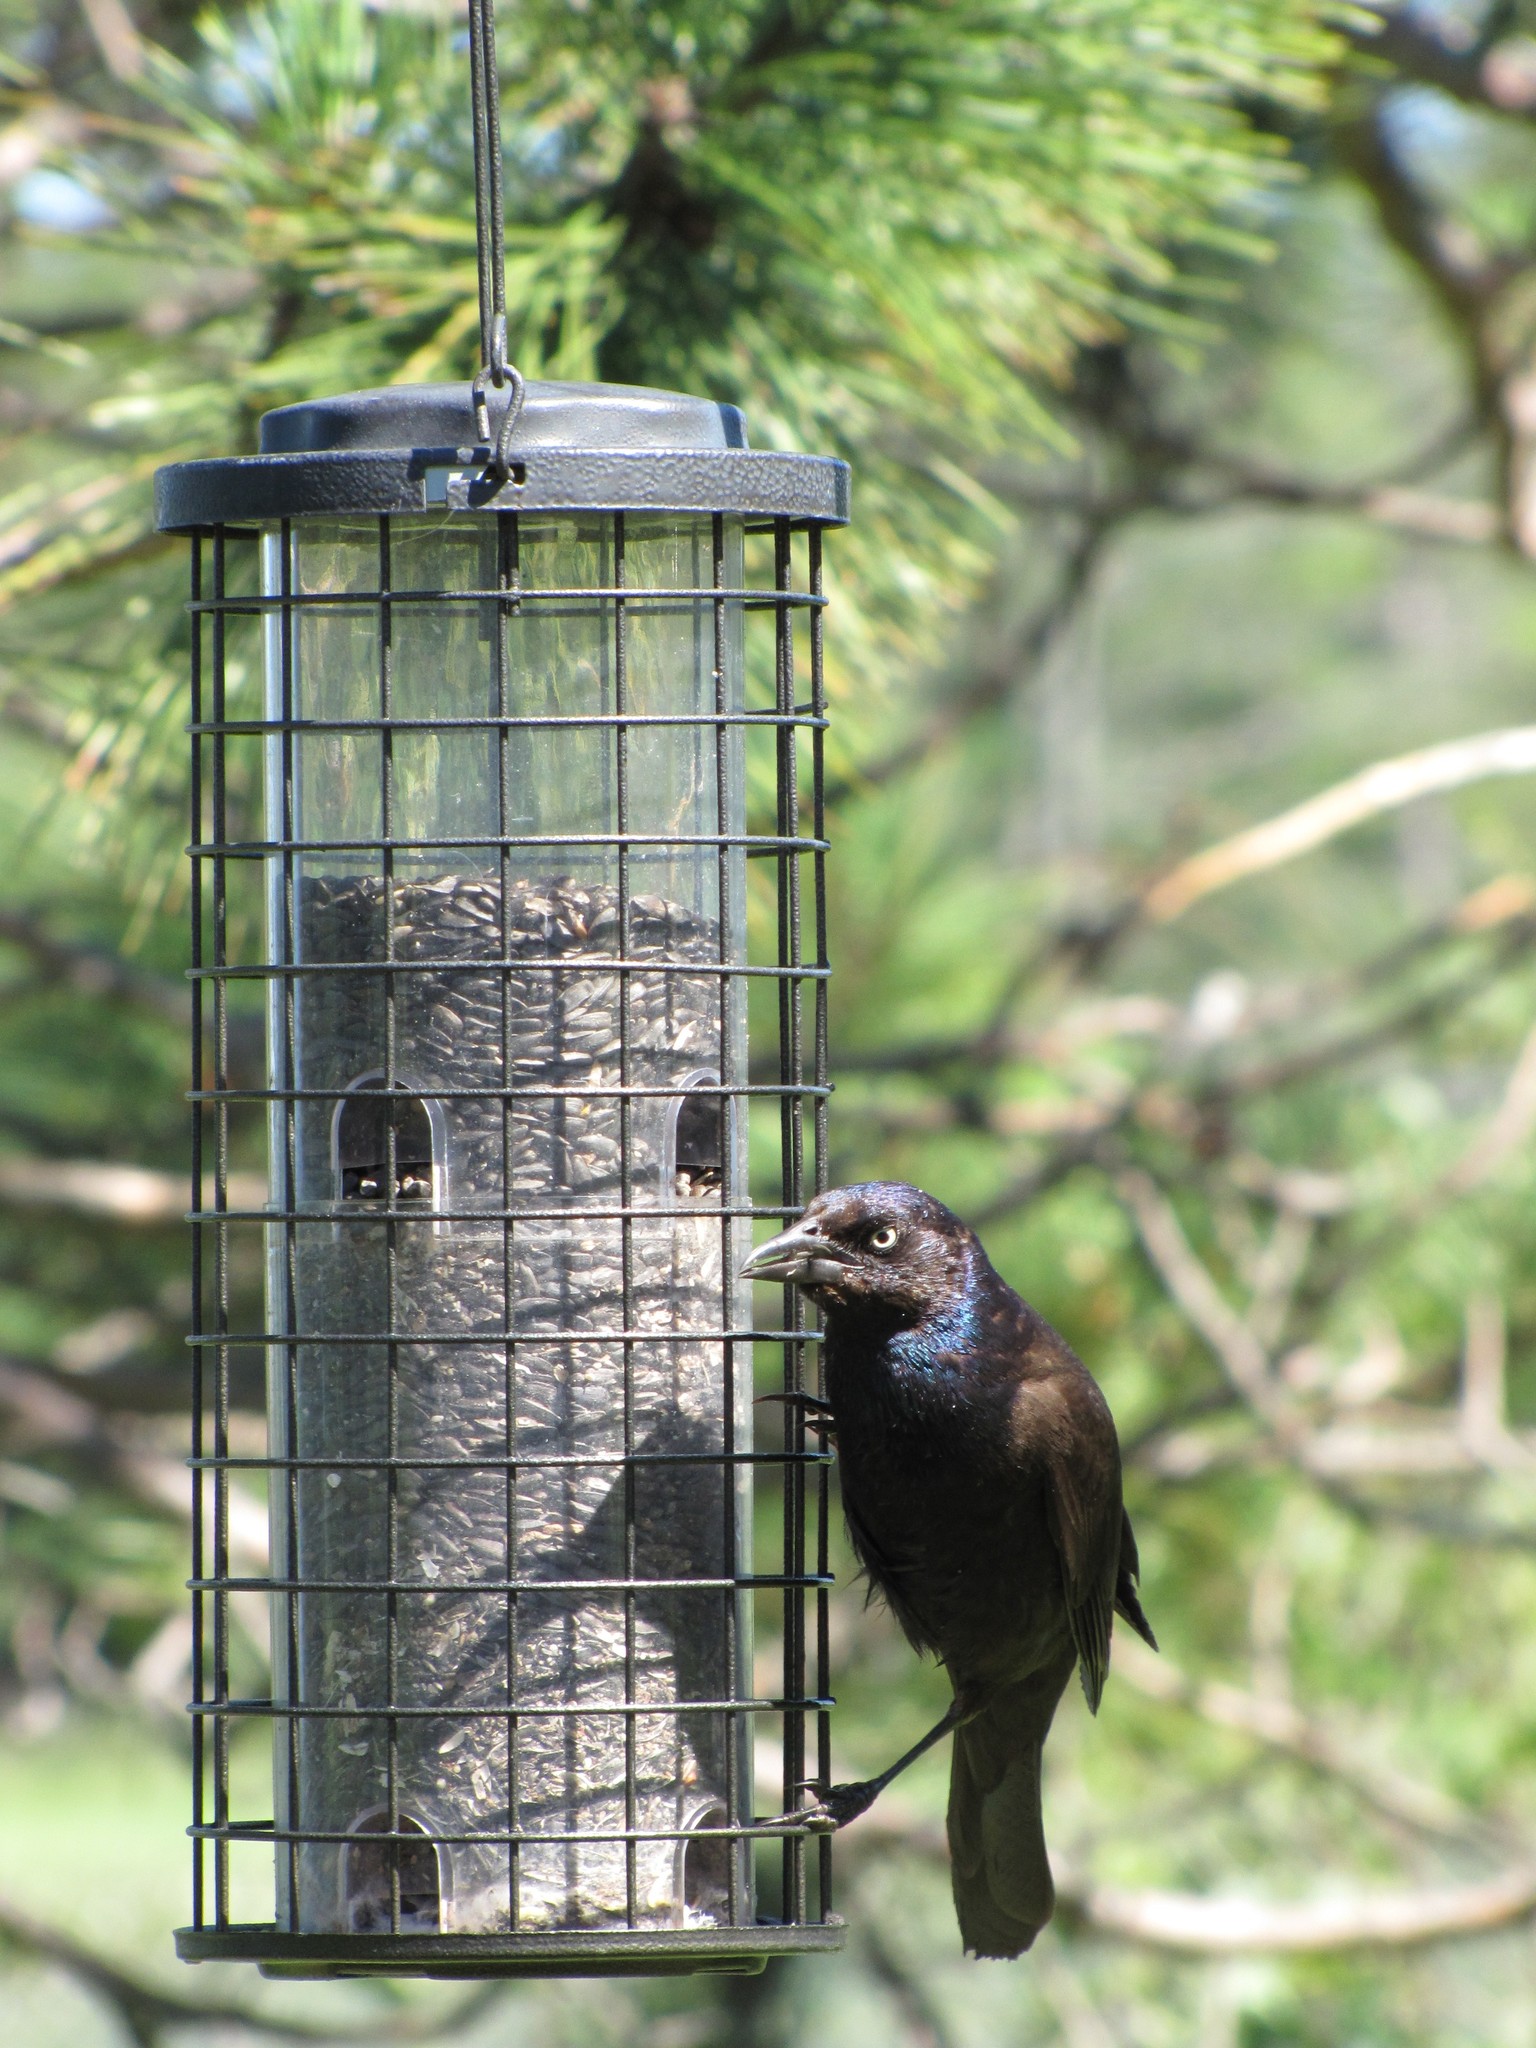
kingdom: Animalia
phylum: Chordata
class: Aves
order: Passeriformes
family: Icteridae
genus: Quiscalus
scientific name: Quiscalus quiscula
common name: Common grackle
